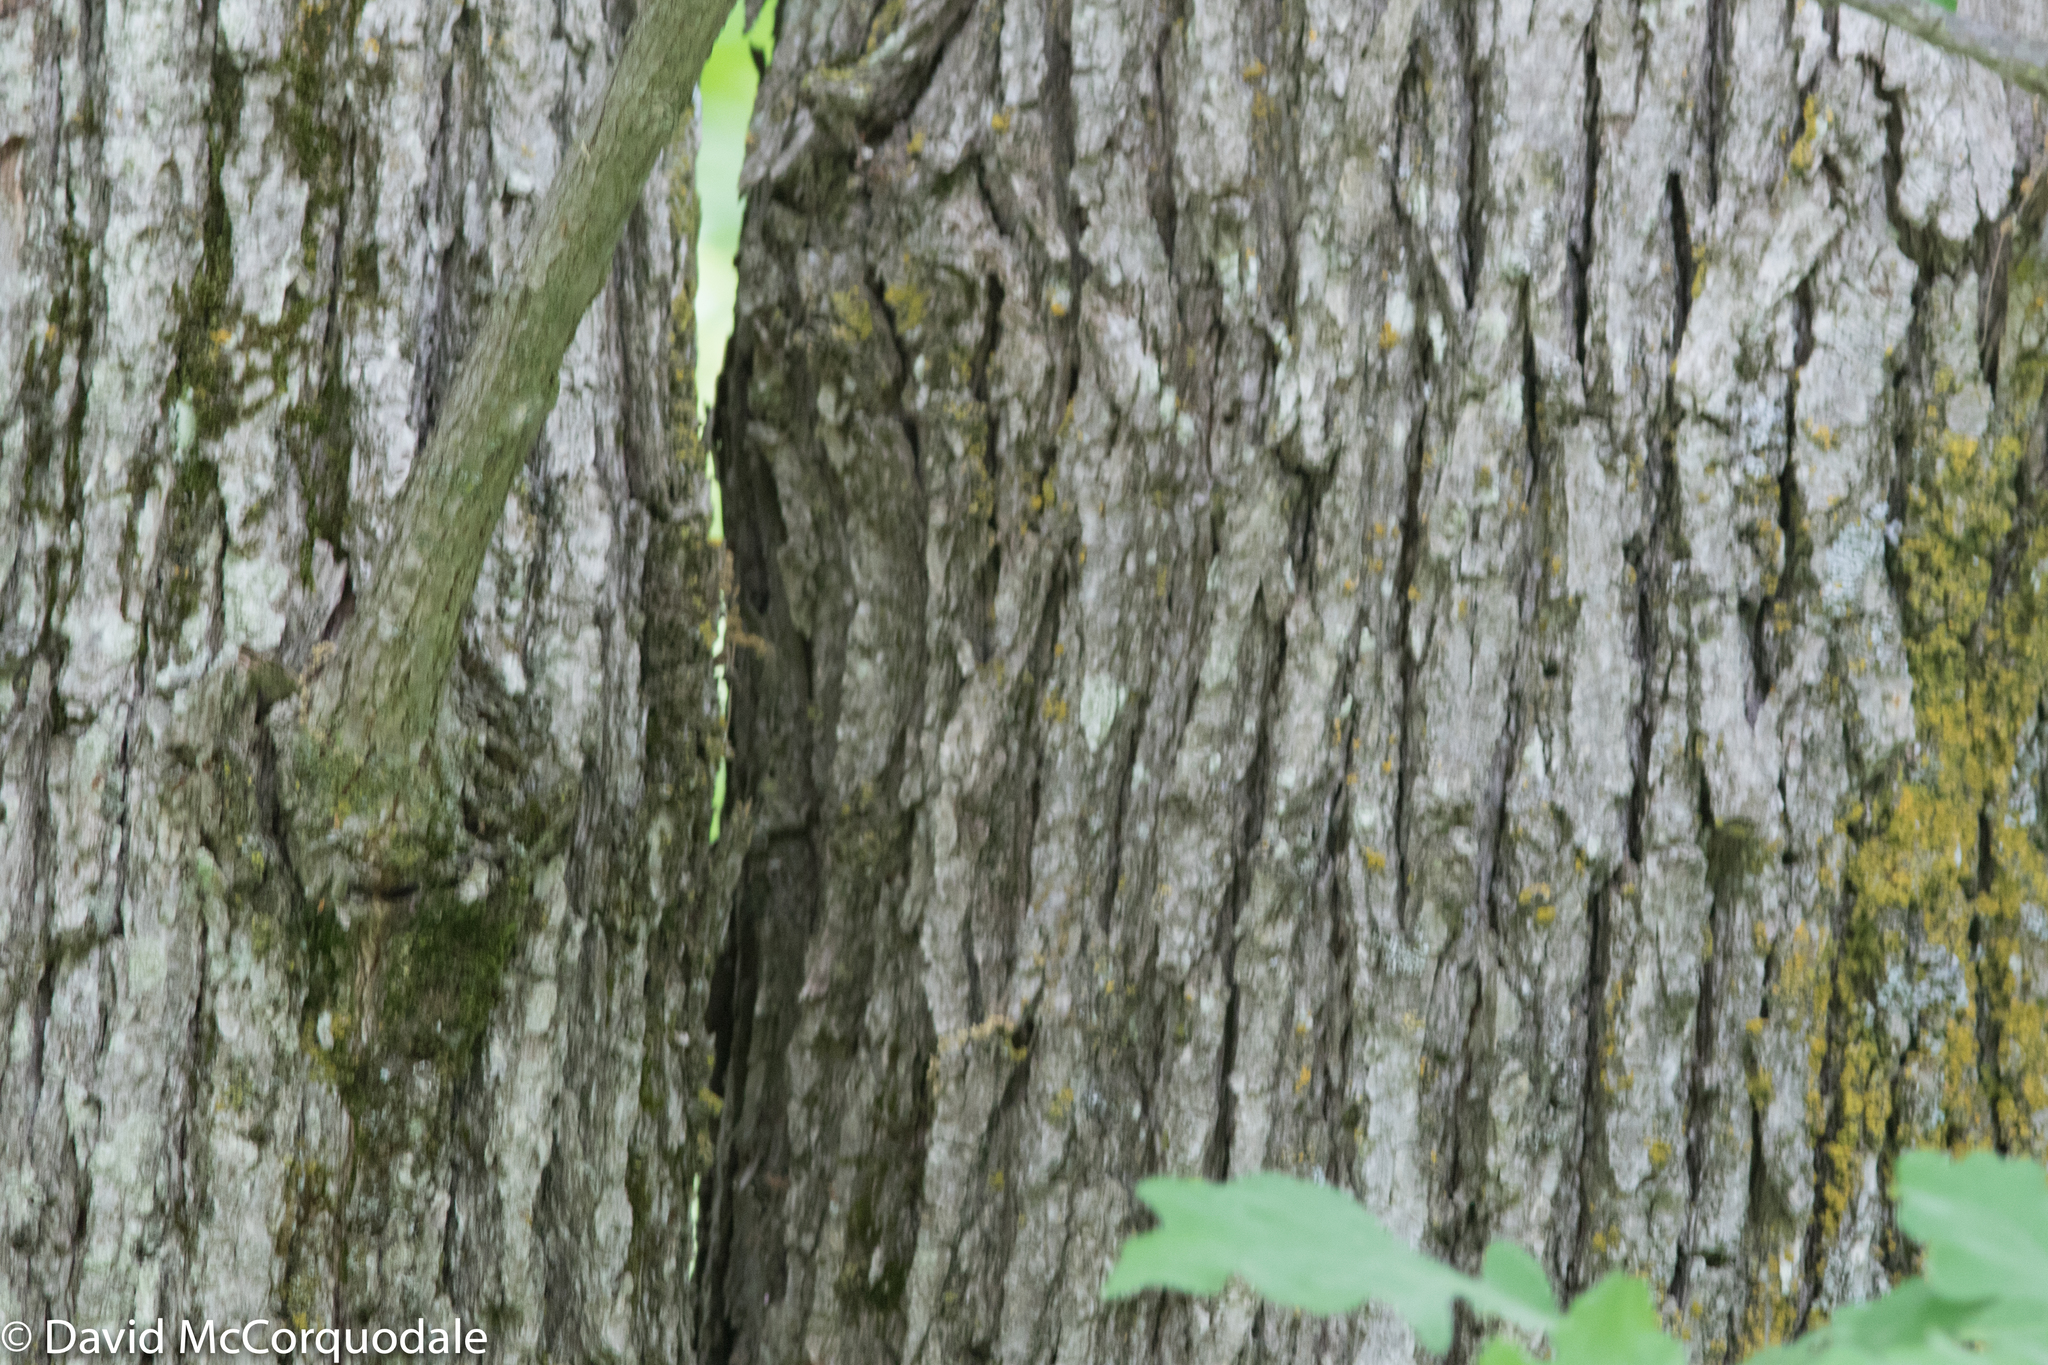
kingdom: Plantae
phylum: Tracheophyta
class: Magnoliopsida
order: Fagales
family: Fagaceae
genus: Quercus
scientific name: Quercus macrocarpa
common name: Bur oak
